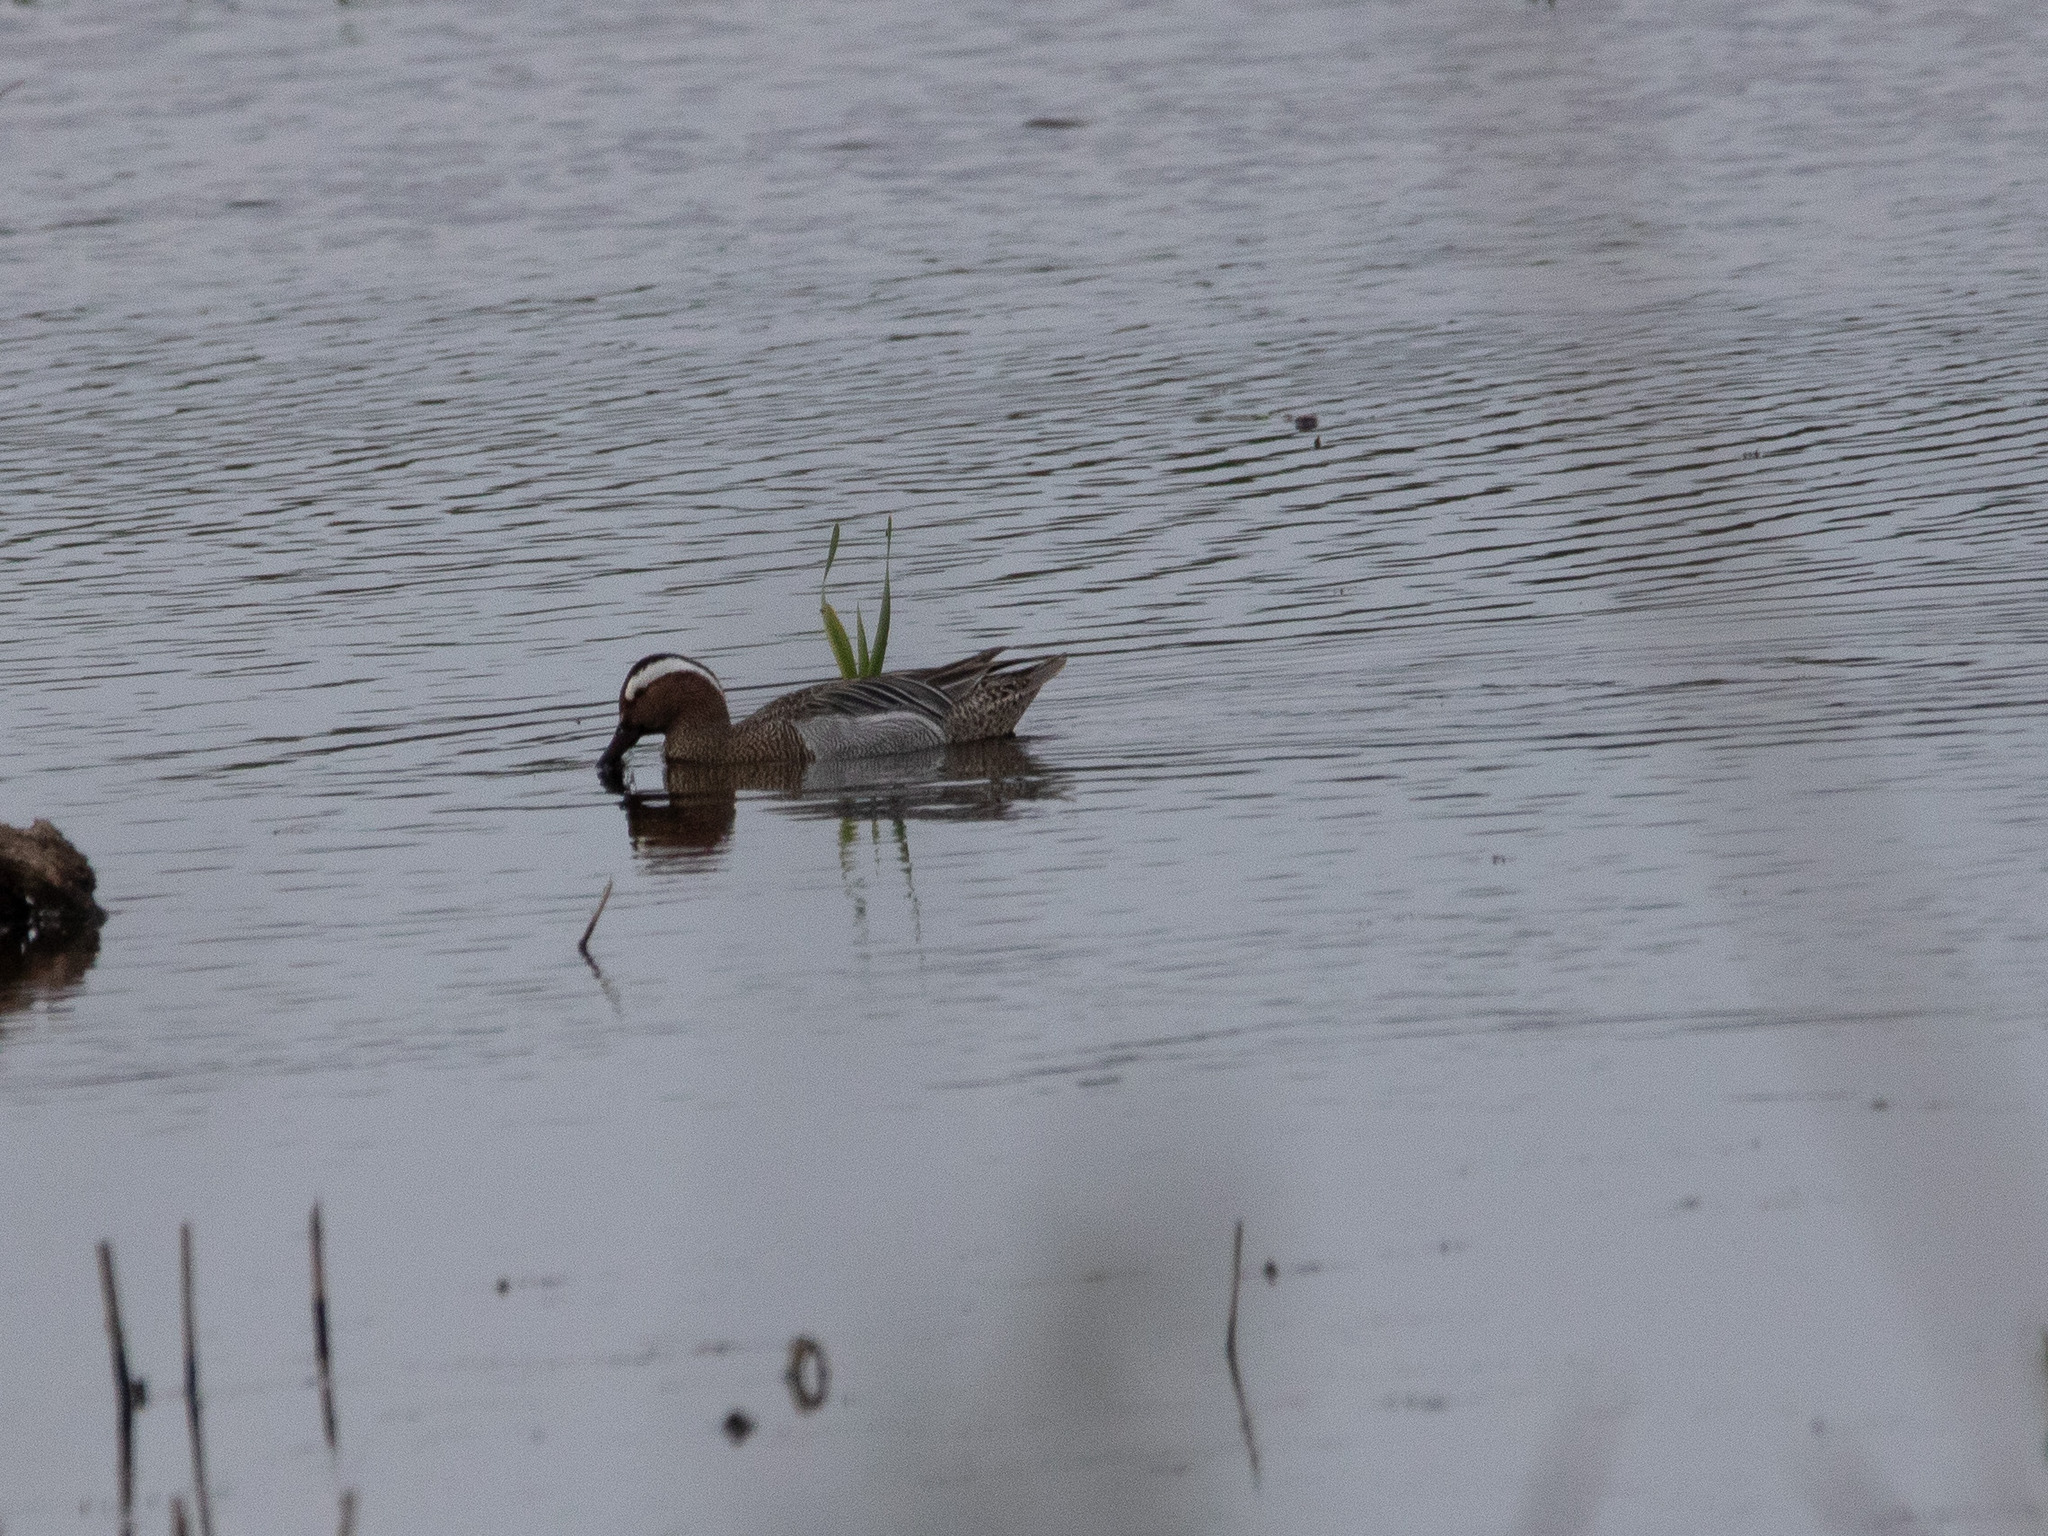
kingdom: Animalia
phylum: Chordata
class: Aves
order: Anseriformes
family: Anatidae
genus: Spatula
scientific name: Spatula querquedula
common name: Garganey
